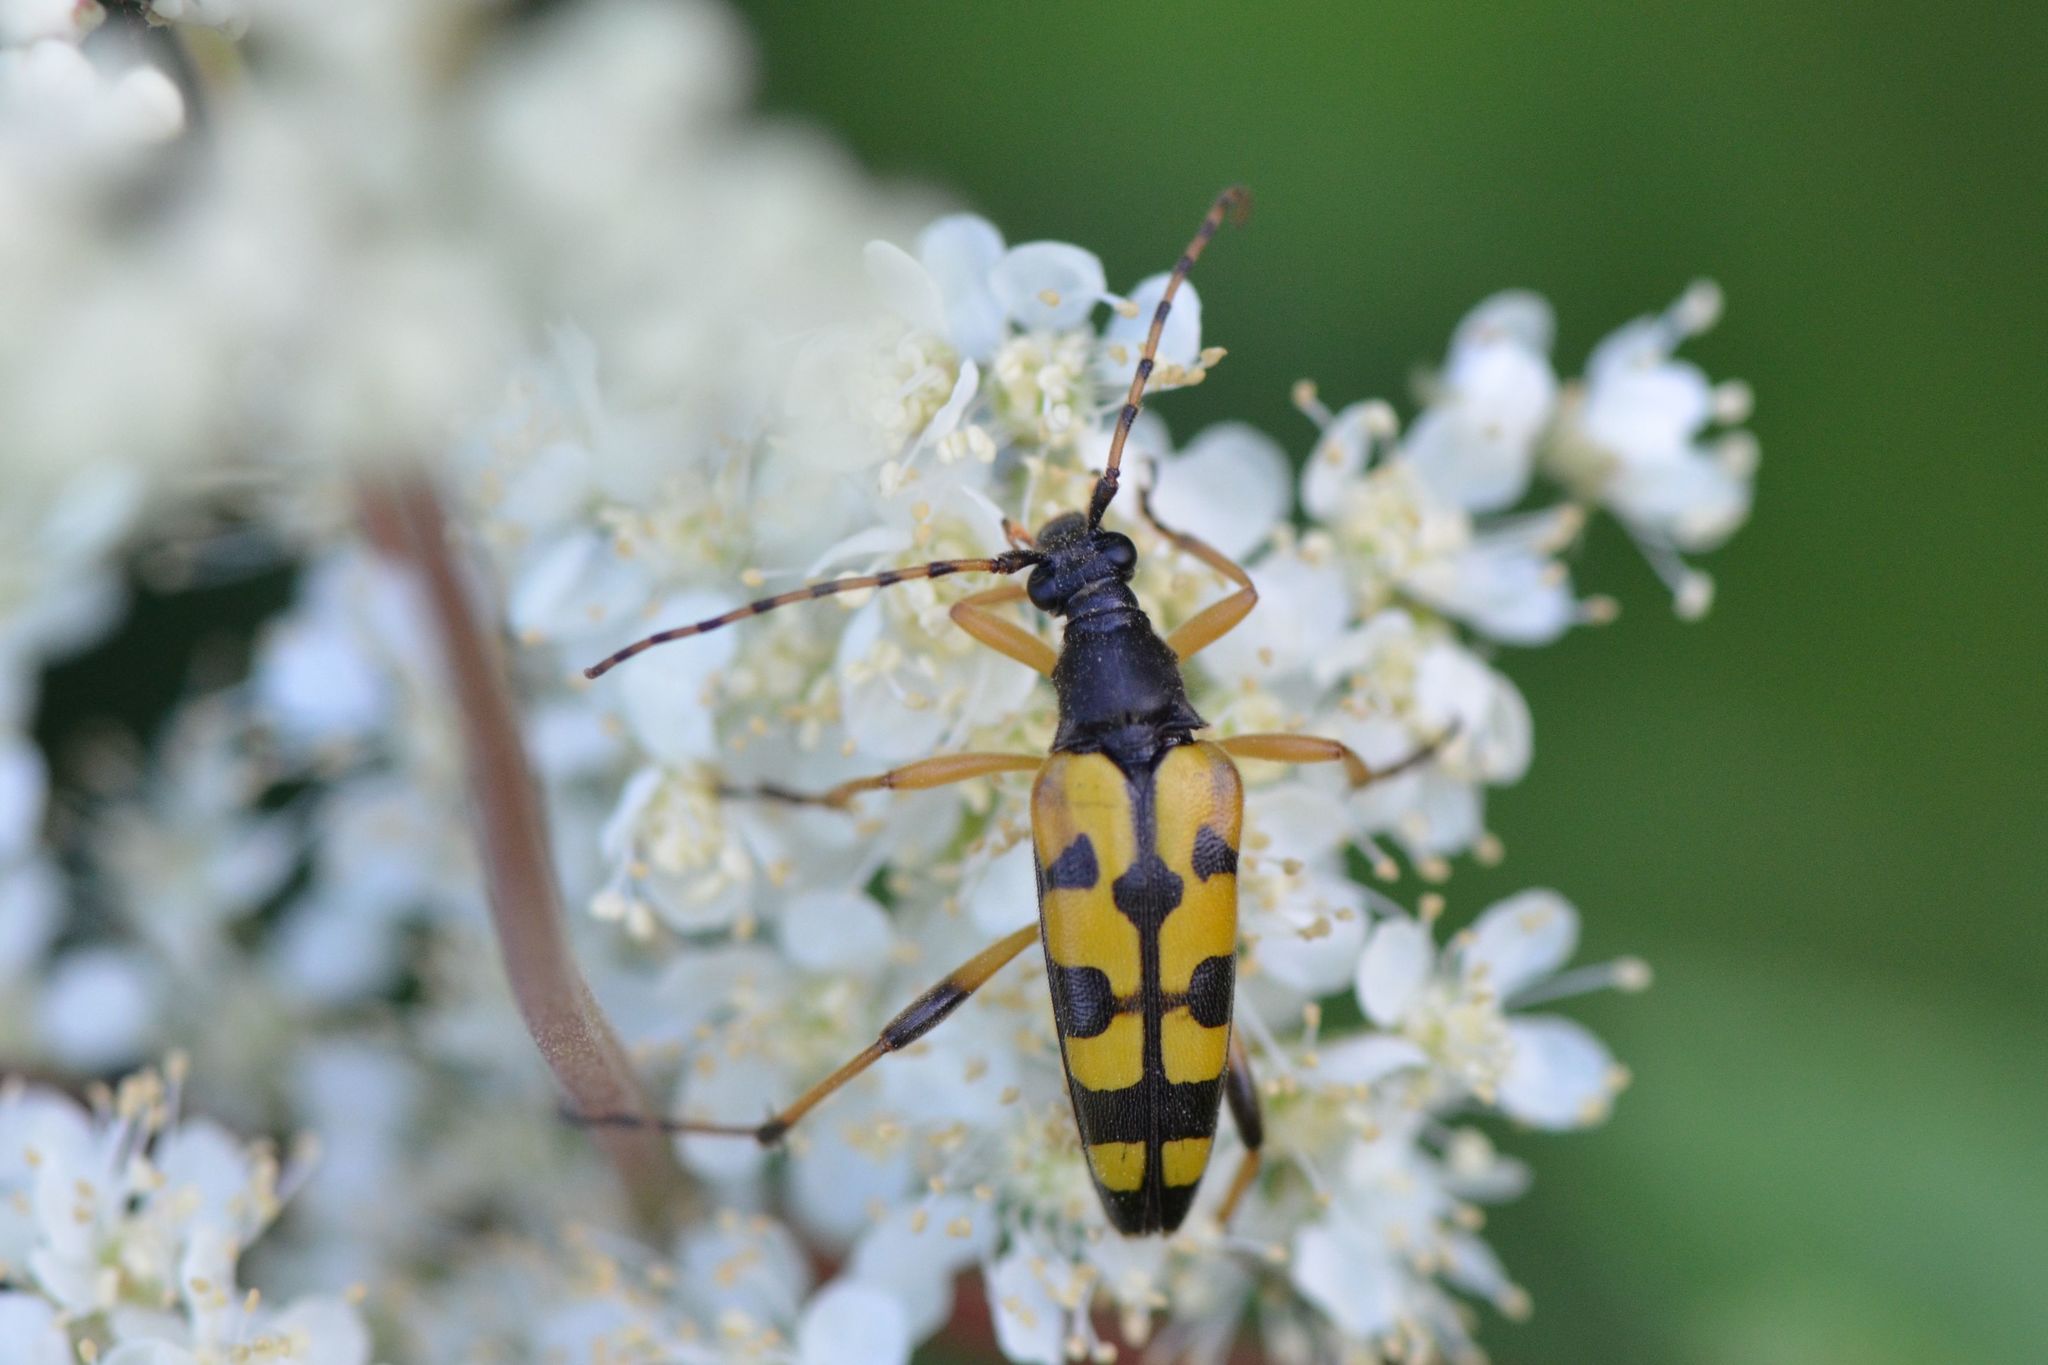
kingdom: Animalia
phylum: Arthropoda
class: Insecta
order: Coleoptera
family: Cerambycidae
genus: Rutpela
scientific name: Rutpela maculata
